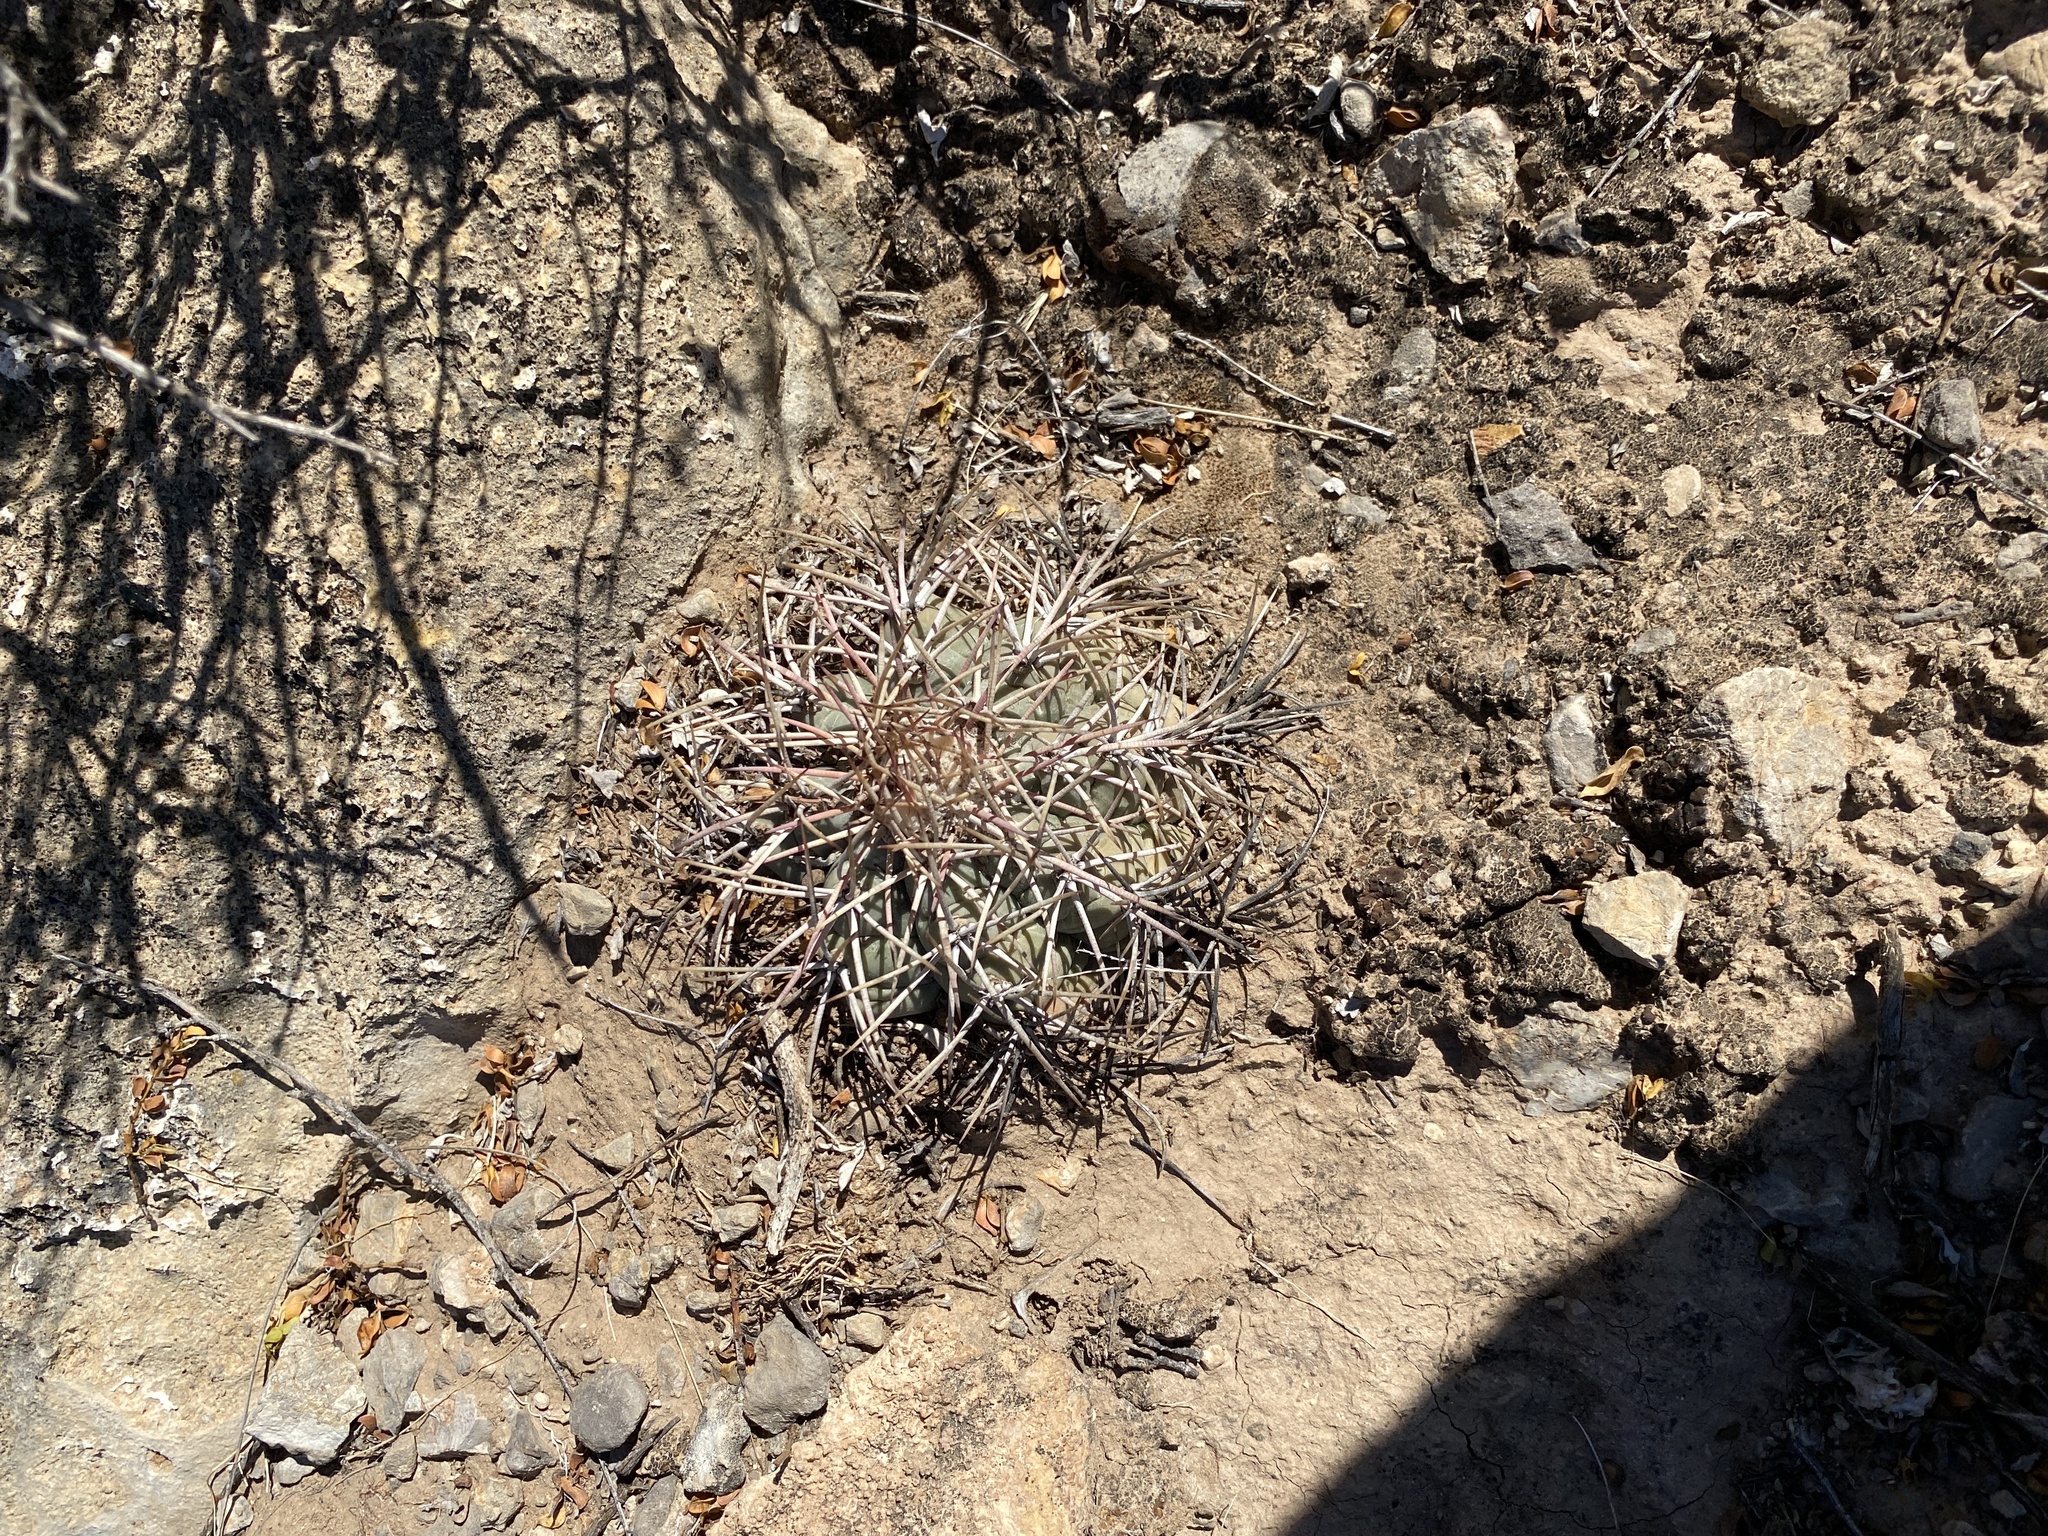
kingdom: Plantae
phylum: Tracheophyta
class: Magnoliopsida
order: Caryophyllales
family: Cactaceae
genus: Echinocactus
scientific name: Echinocactus horizonthalonius
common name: Devilshead
